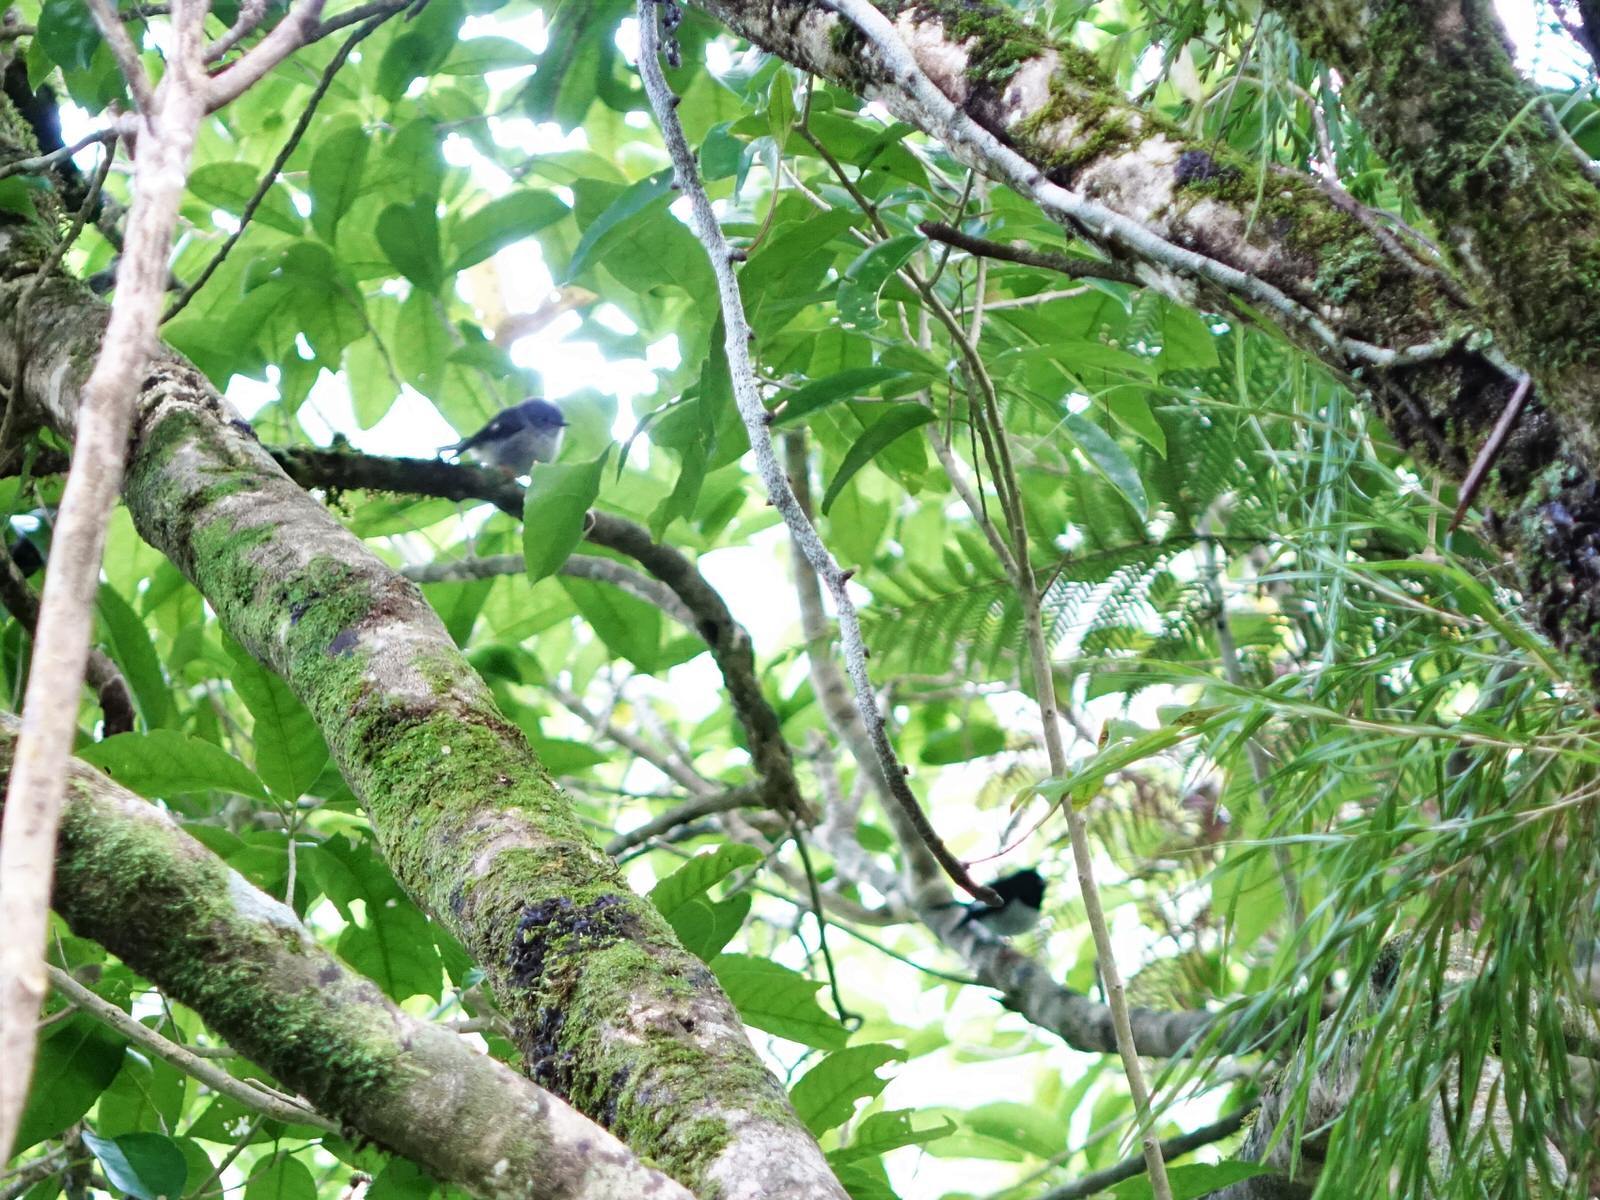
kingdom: Animalia
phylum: Chordata
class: Aves
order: Passeriformes
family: Petroicidae
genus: Petroica
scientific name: Petroica macrocephala
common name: Tomtit
